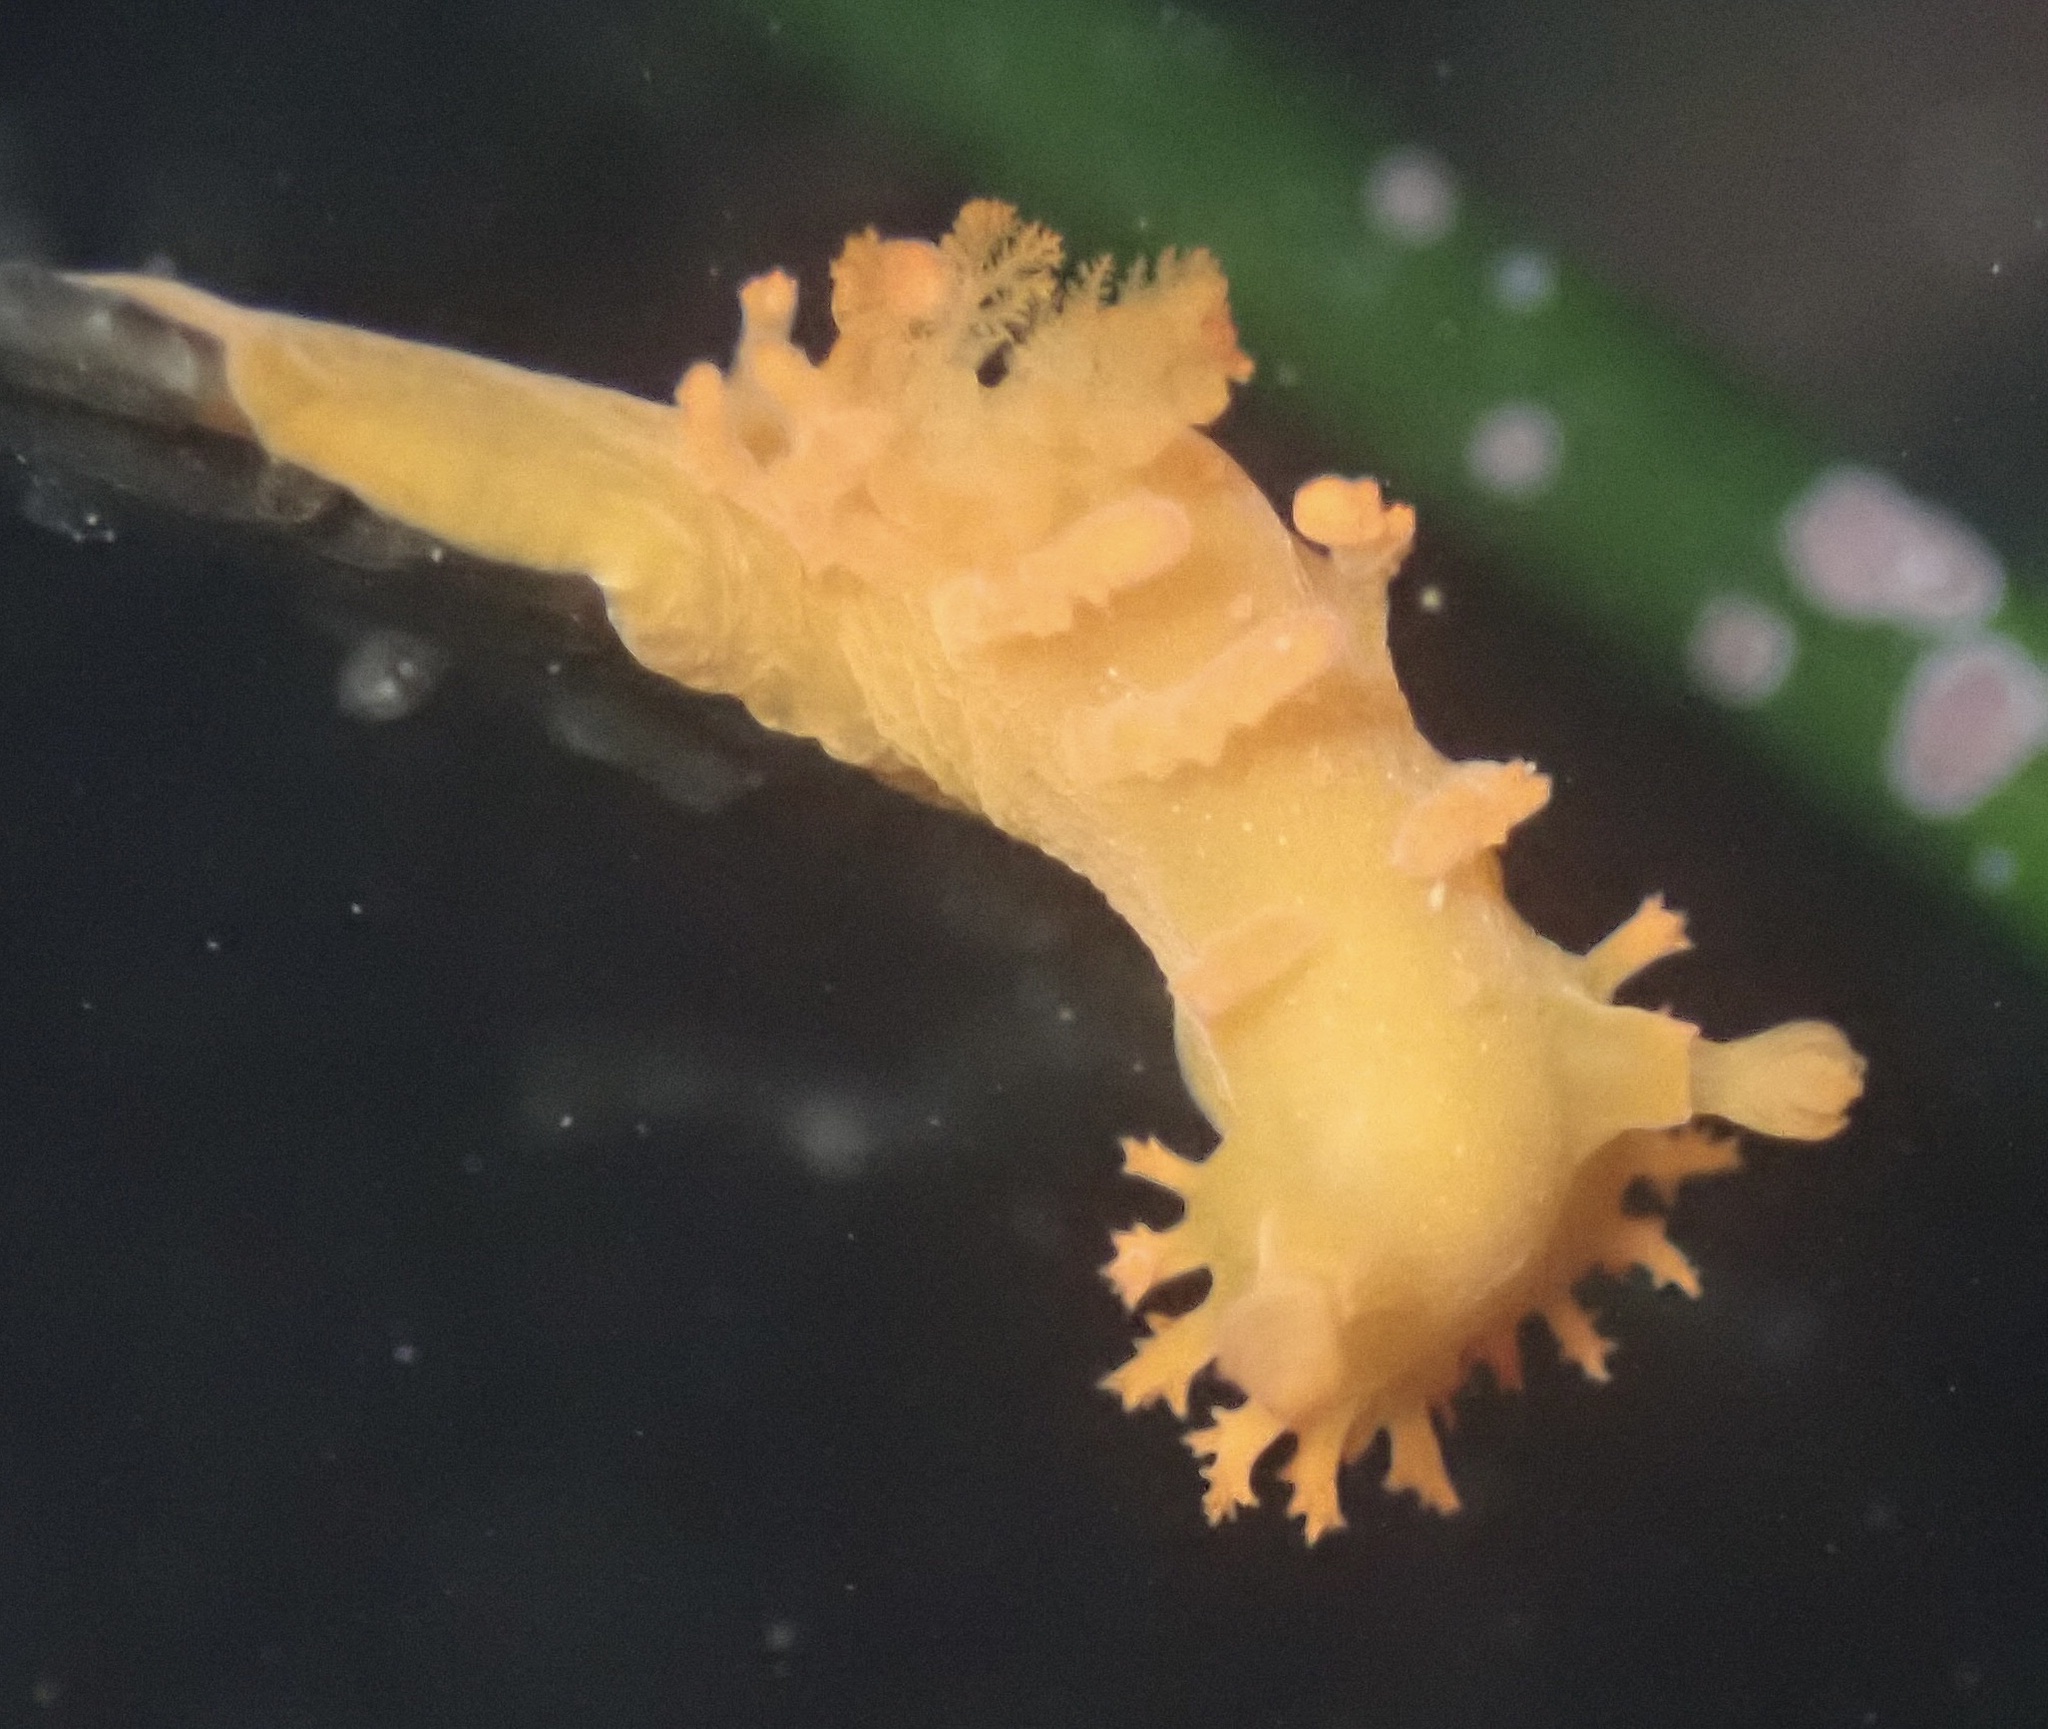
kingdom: Animalia
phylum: Mollusca
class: Gastropoda
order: Nudibranchia
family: Polyceridae
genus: Triopha
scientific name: Triopha maculata
